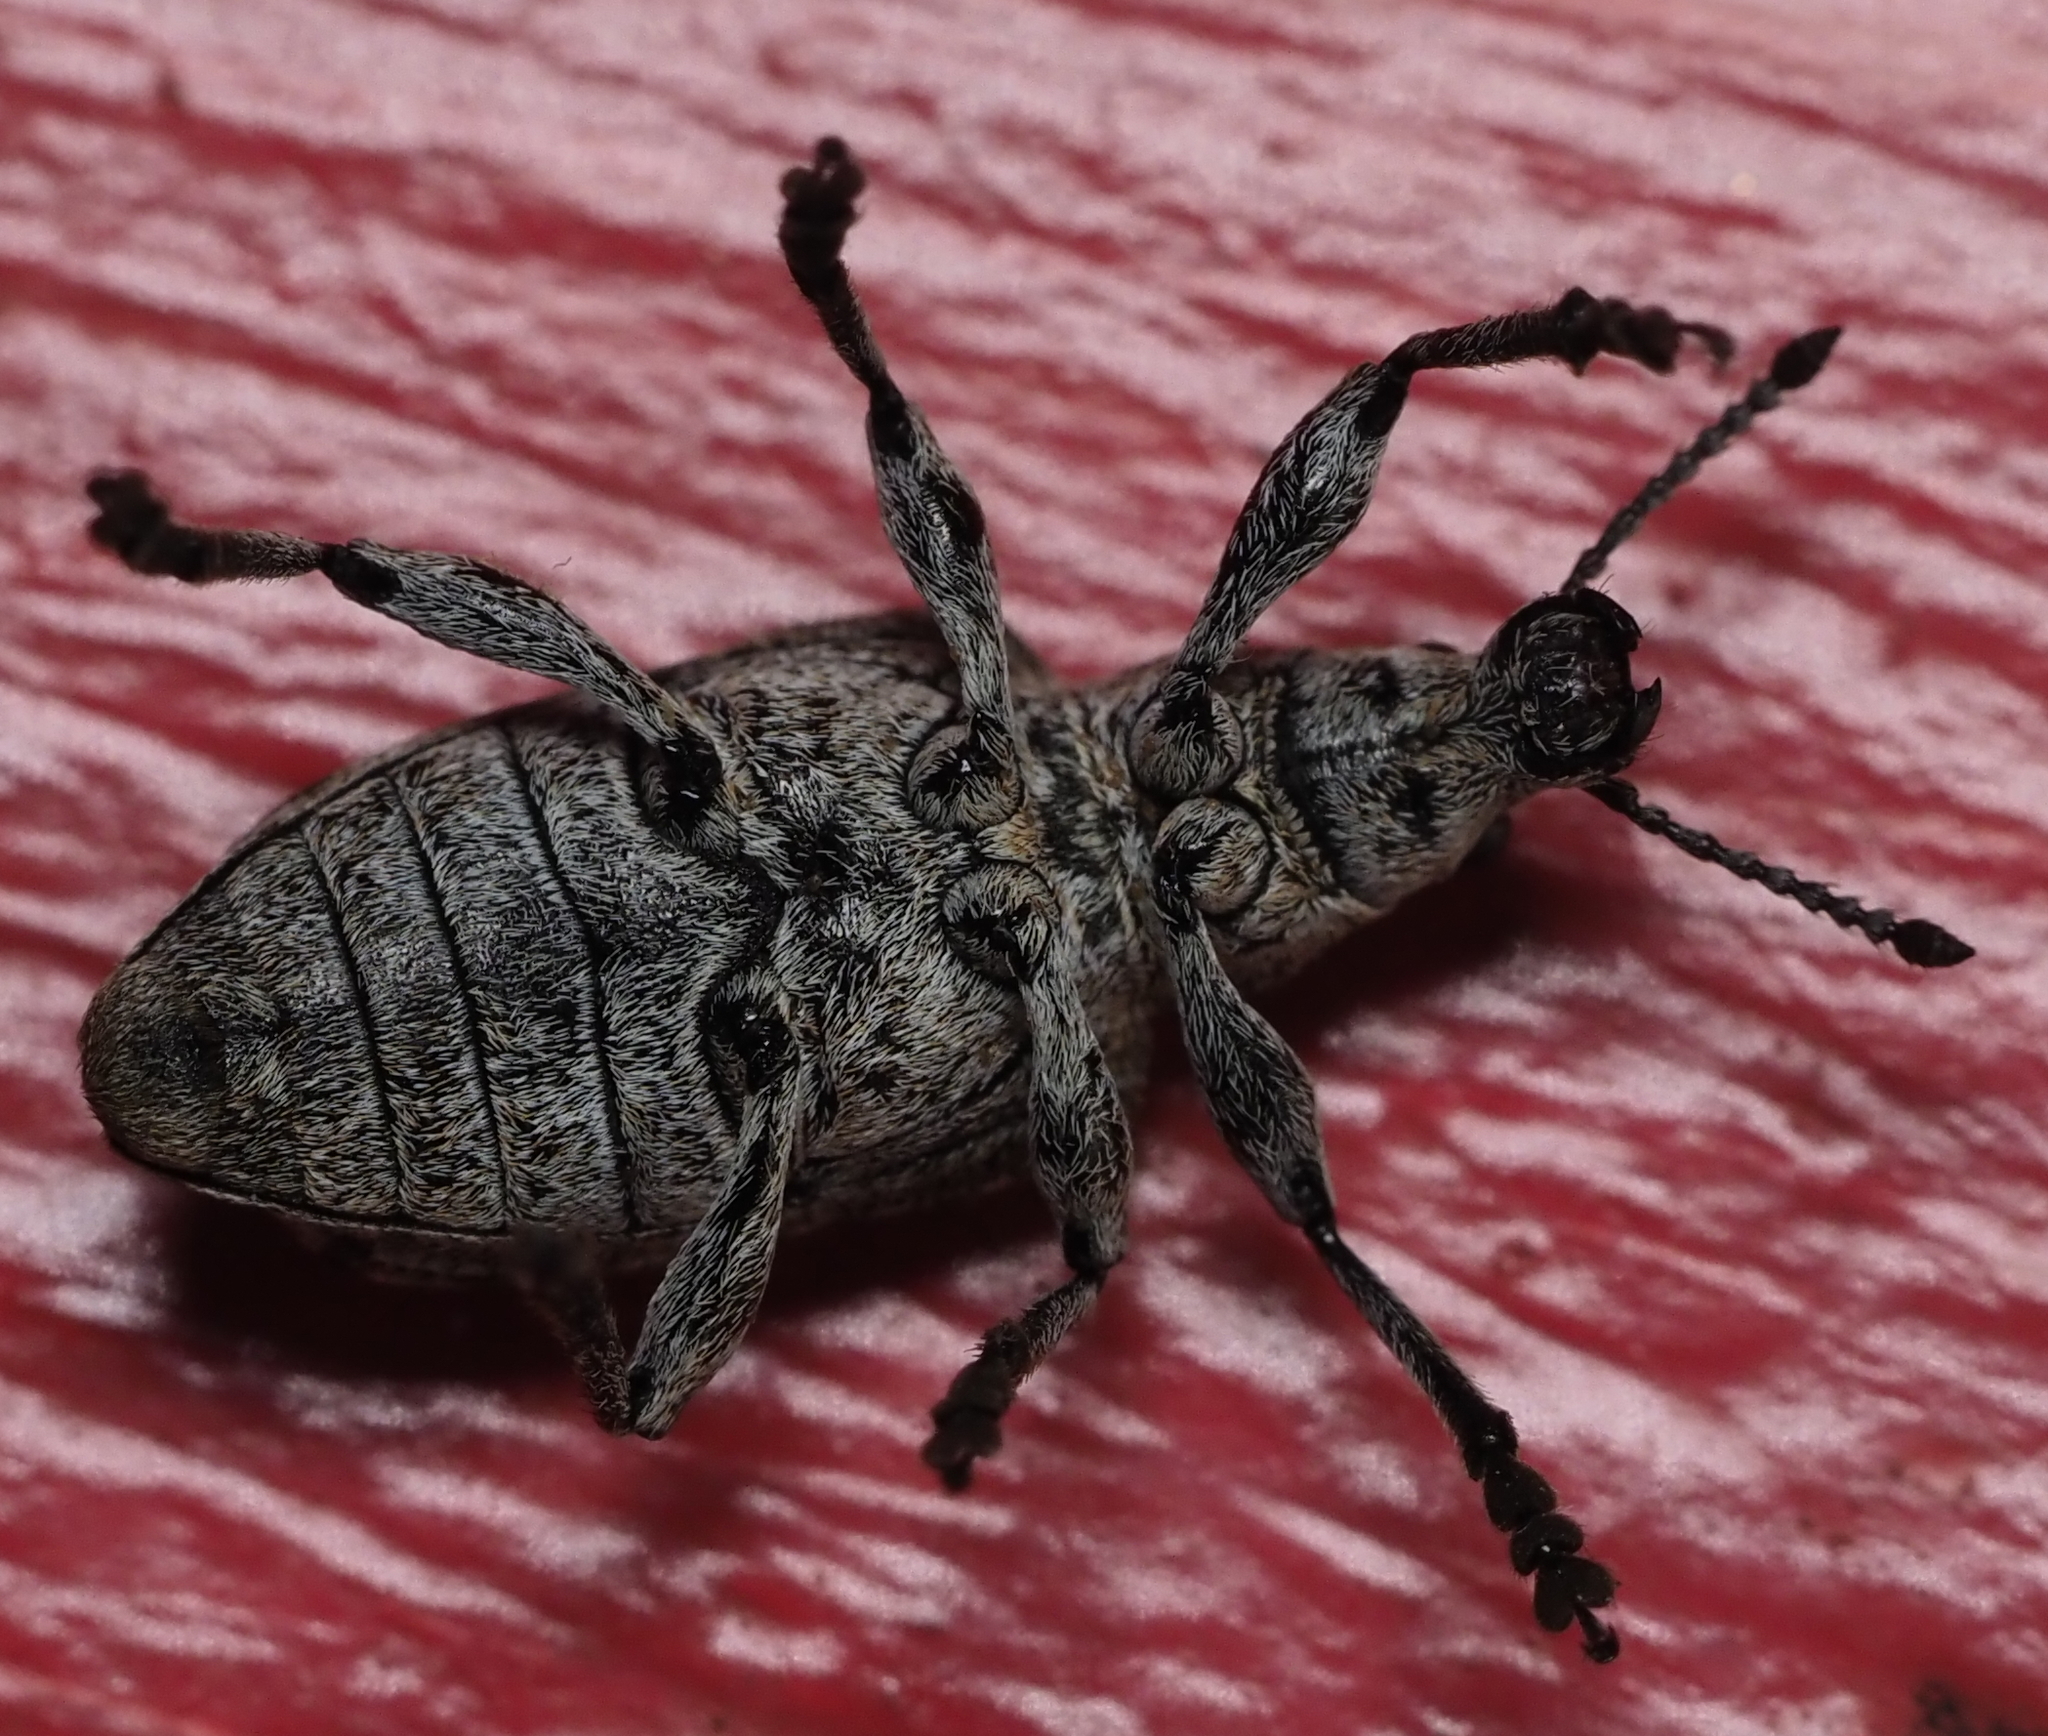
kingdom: Animalia
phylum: Arthropoda
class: Insecta
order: Coleoptera
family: Ithyceridae
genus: Ithycerus
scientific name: Ithycerus noveboracensis
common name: New york weevil
